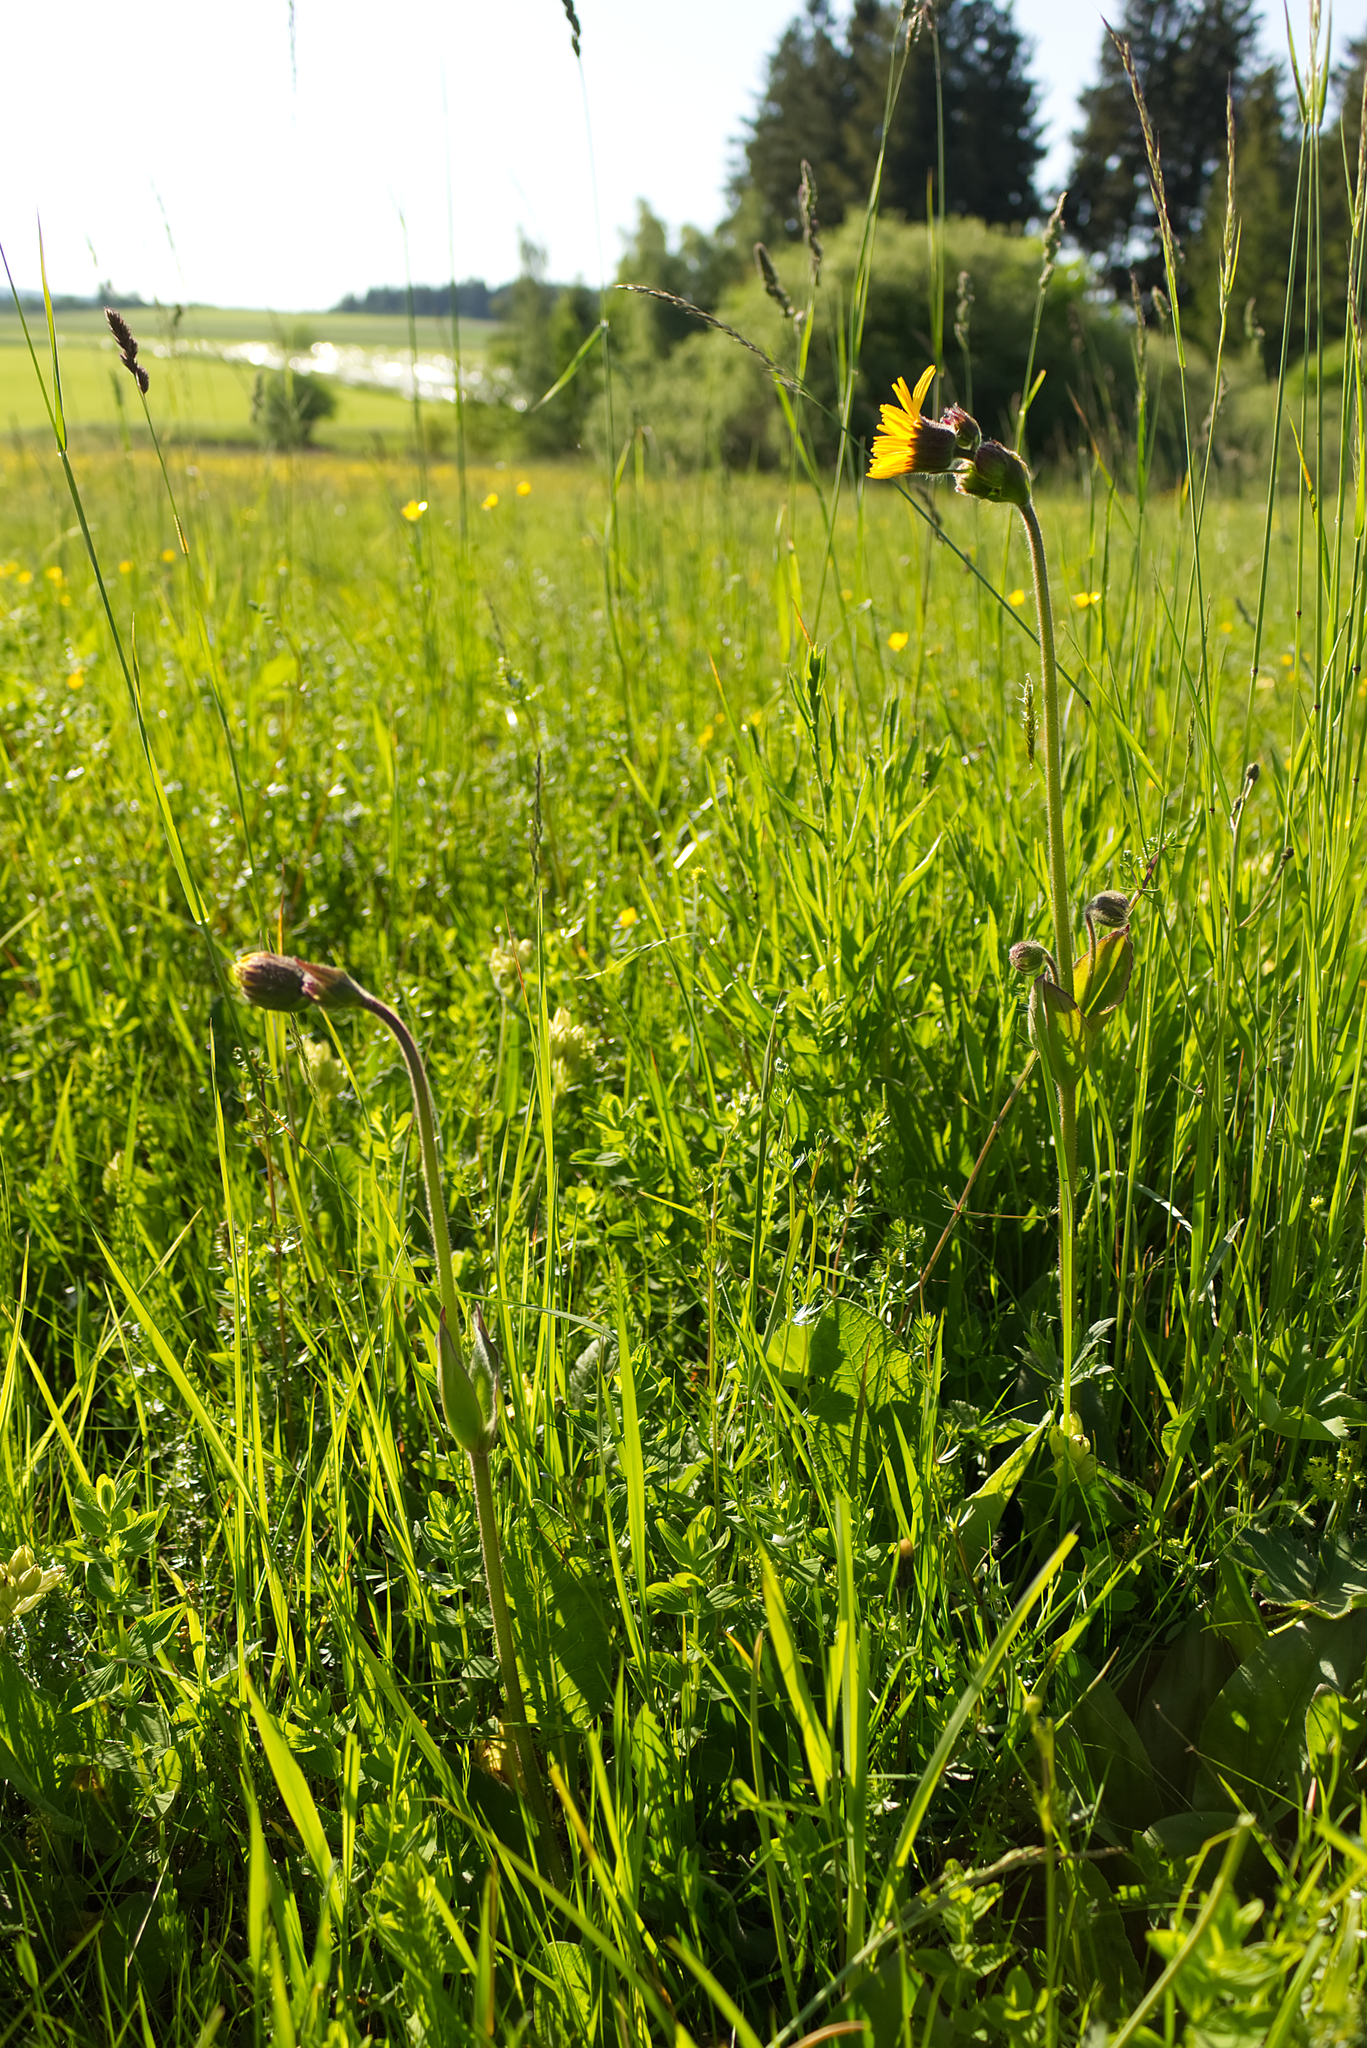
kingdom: Plantae
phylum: Tracheophyta
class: Magnoliopsida
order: Asterales
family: Asteraceae
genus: Arnica
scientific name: Arnica montana
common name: Leopard's bane
